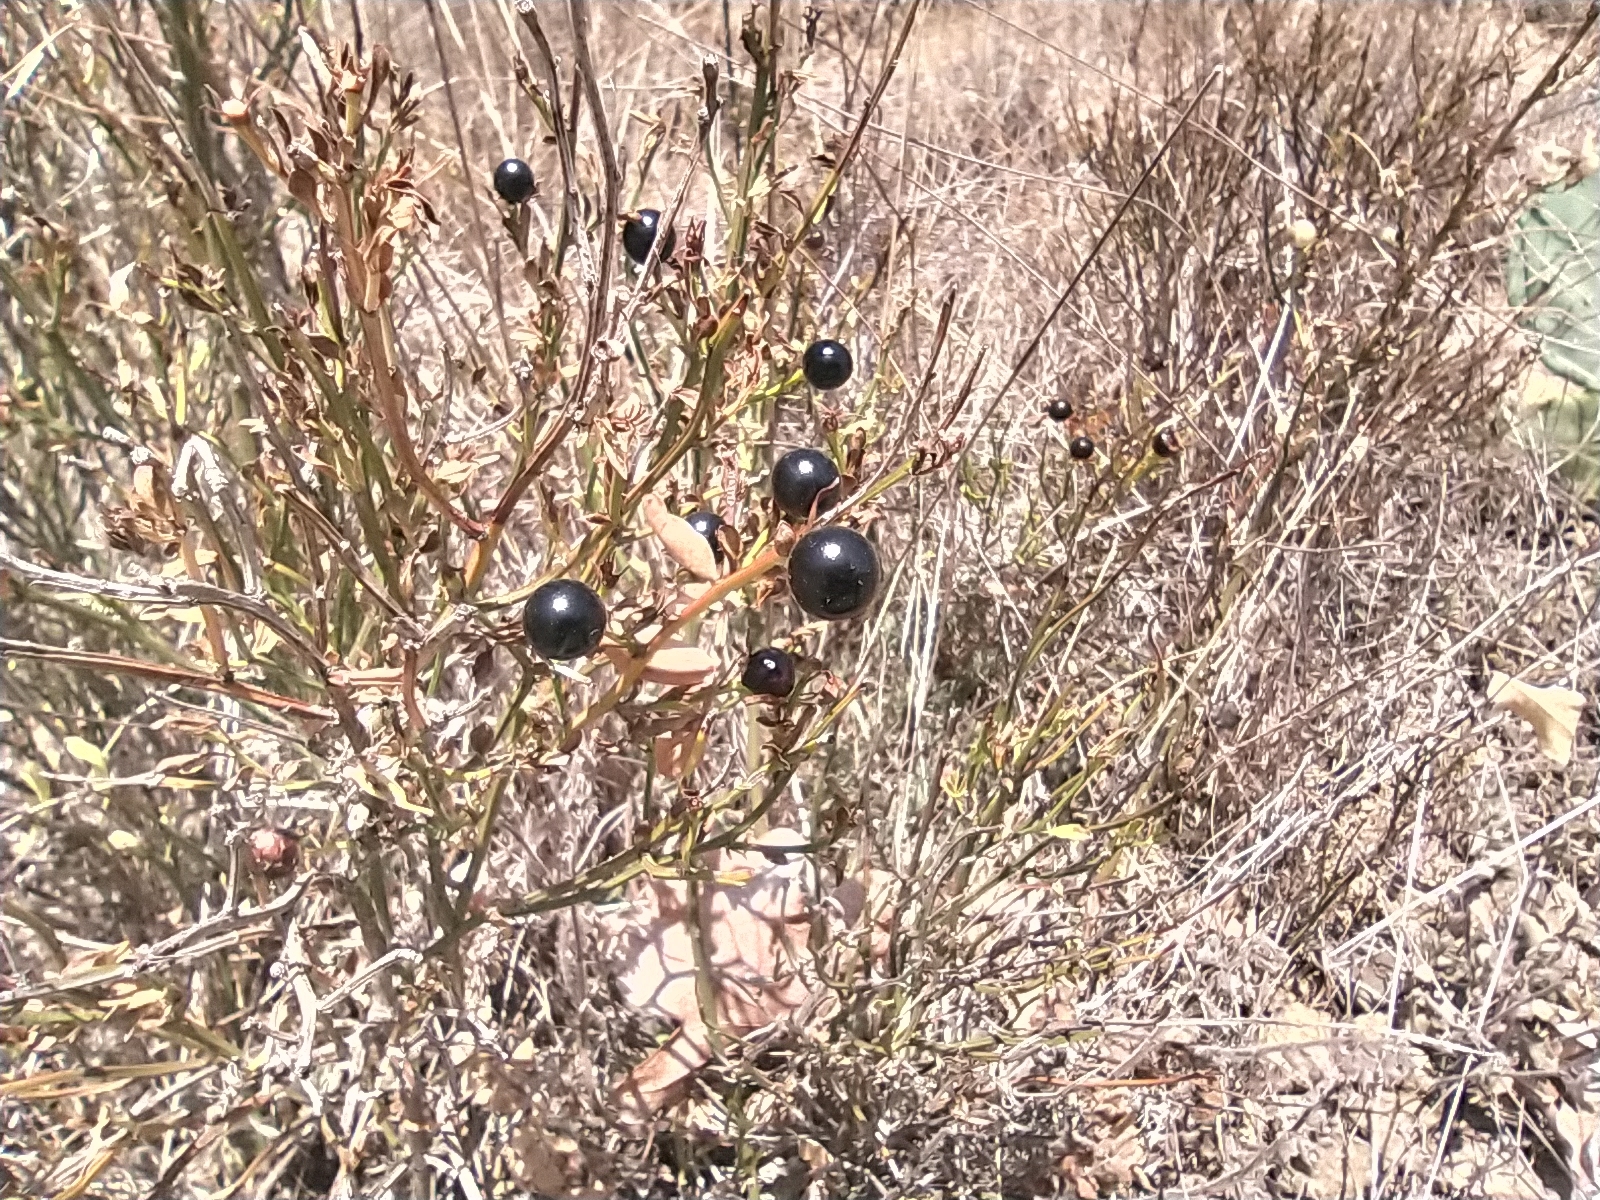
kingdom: Plantae
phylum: Tracheophyta
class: Magnoliopsida
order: Lamiales
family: Oleaceae
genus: Chrysojasminum
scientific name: Chrysojasminum fruticans
